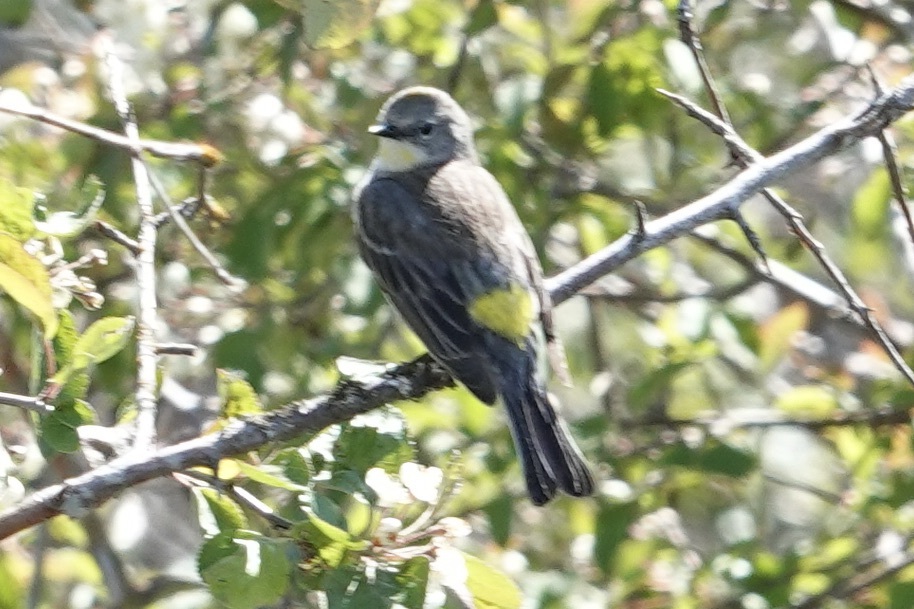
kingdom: Animalia
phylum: Chordata
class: Aves
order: Passeriformes
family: Parulidae
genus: Setophaga
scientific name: Setophaga coronata
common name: Myrtle warbler
